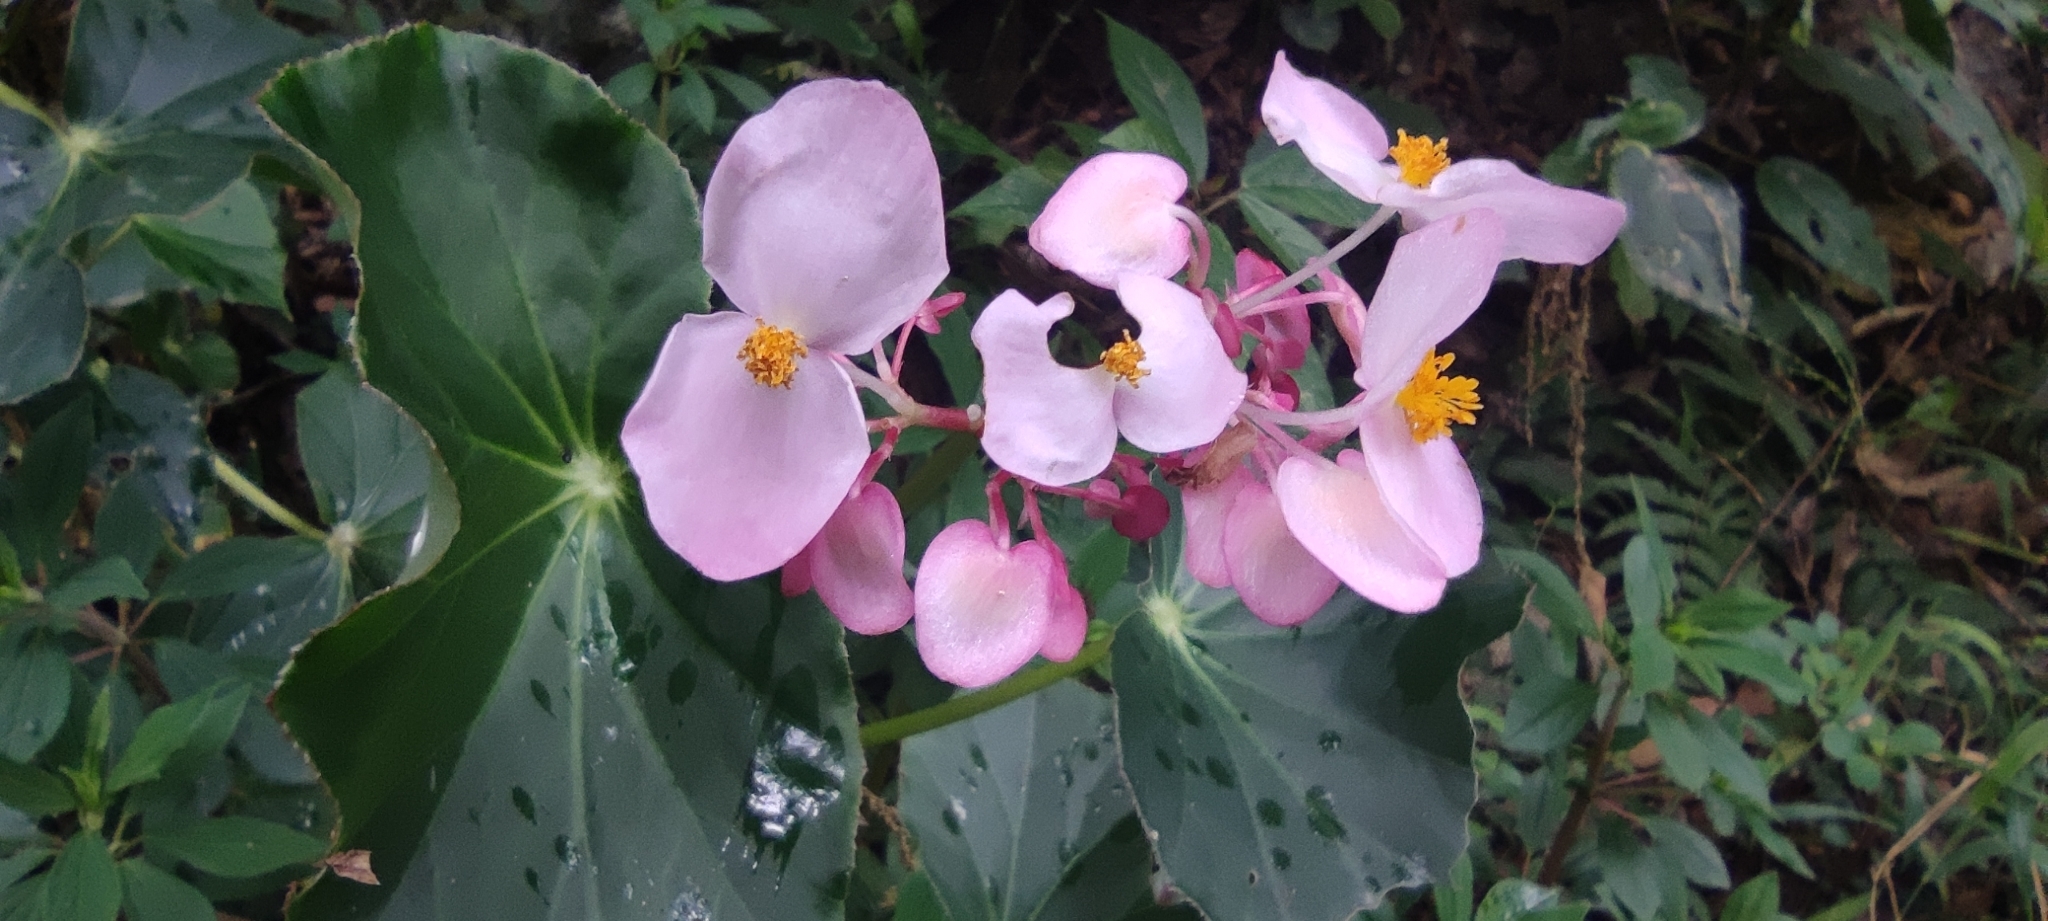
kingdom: Plantae
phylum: Tracheophyta
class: Magnoliopsida
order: Cucurbitales
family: Begoniaceae
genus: Begonia
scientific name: Begonia bracteosa
